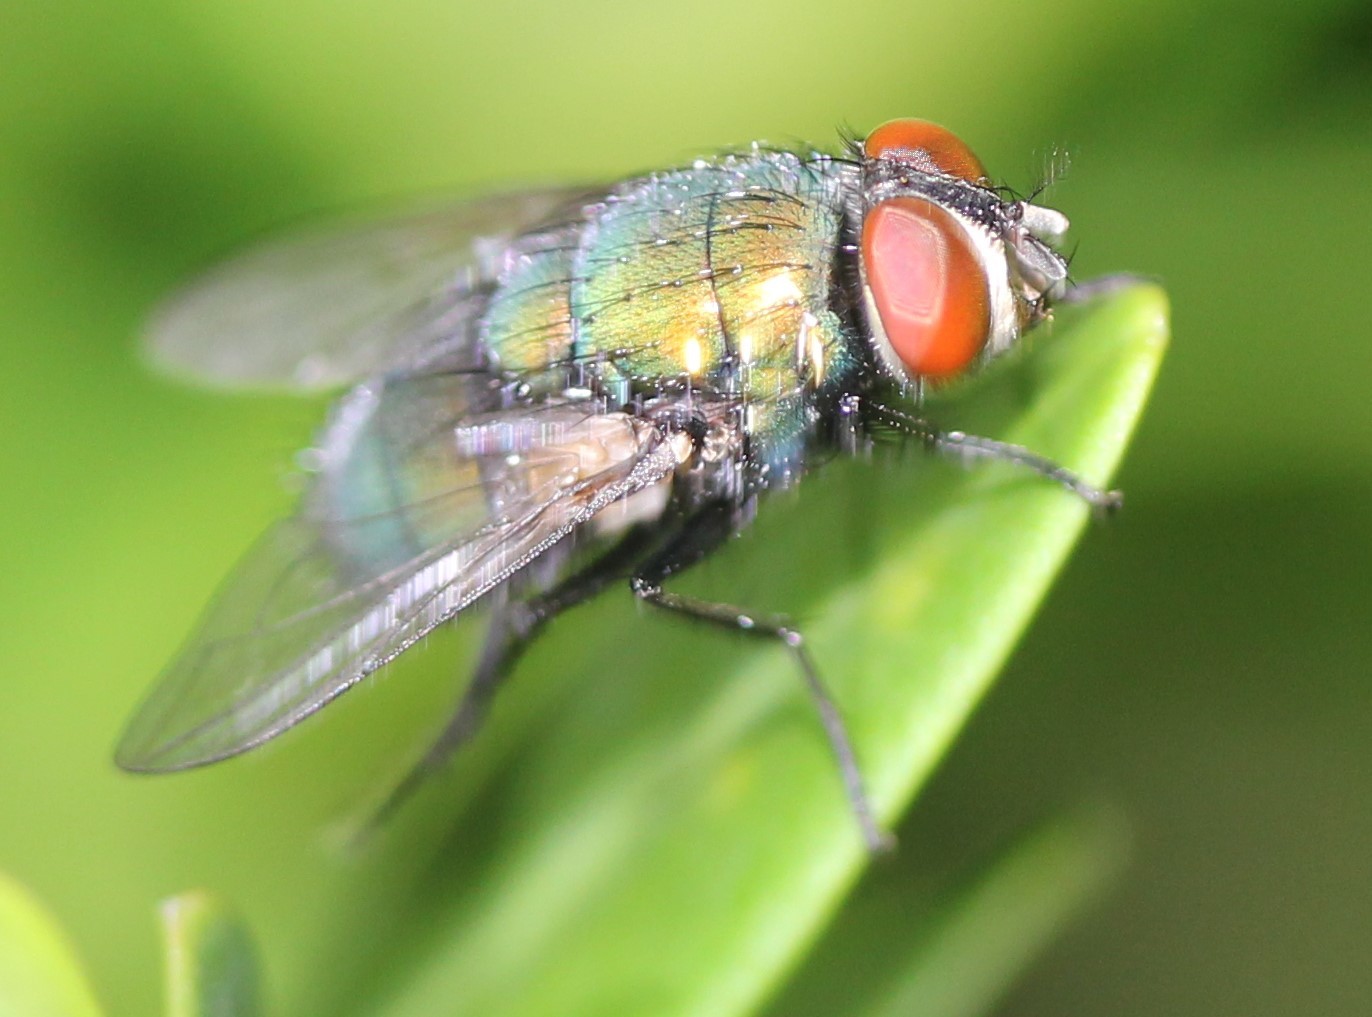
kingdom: Animalia
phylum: Arthropoda
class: Insecta
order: Diptera
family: Calliphoridae
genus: Lucilia
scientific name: Lucilia sericata
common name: Blow fly
